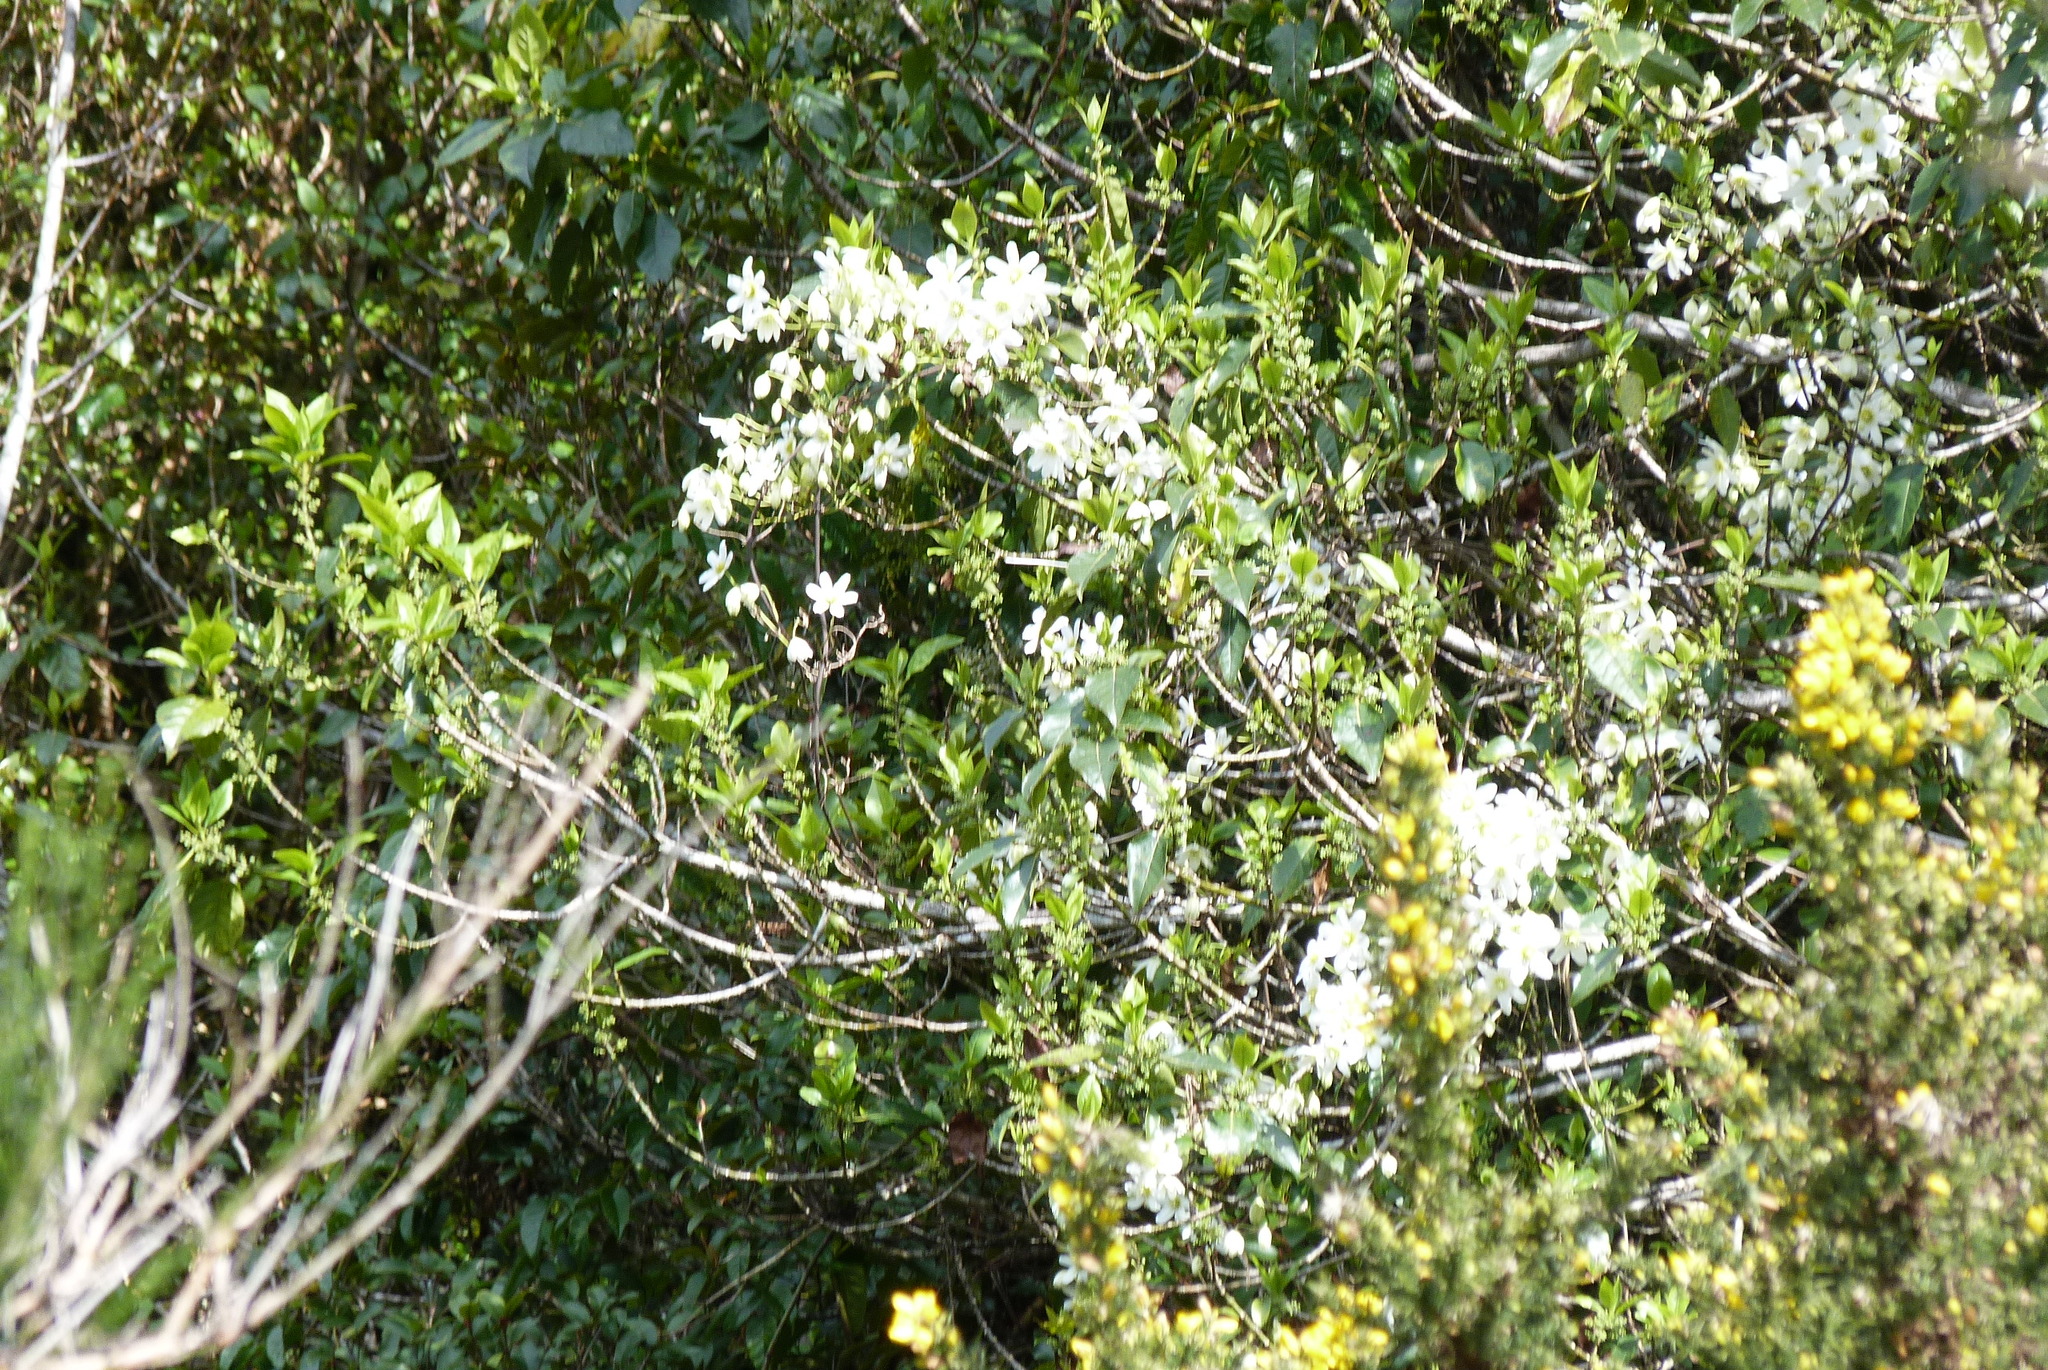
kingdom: Plantae
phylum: Tracheophyta
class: Magnoliopsida
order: Ranunculales
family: Ranunculaceae
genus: Clematis
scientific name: Clematis paniculata
